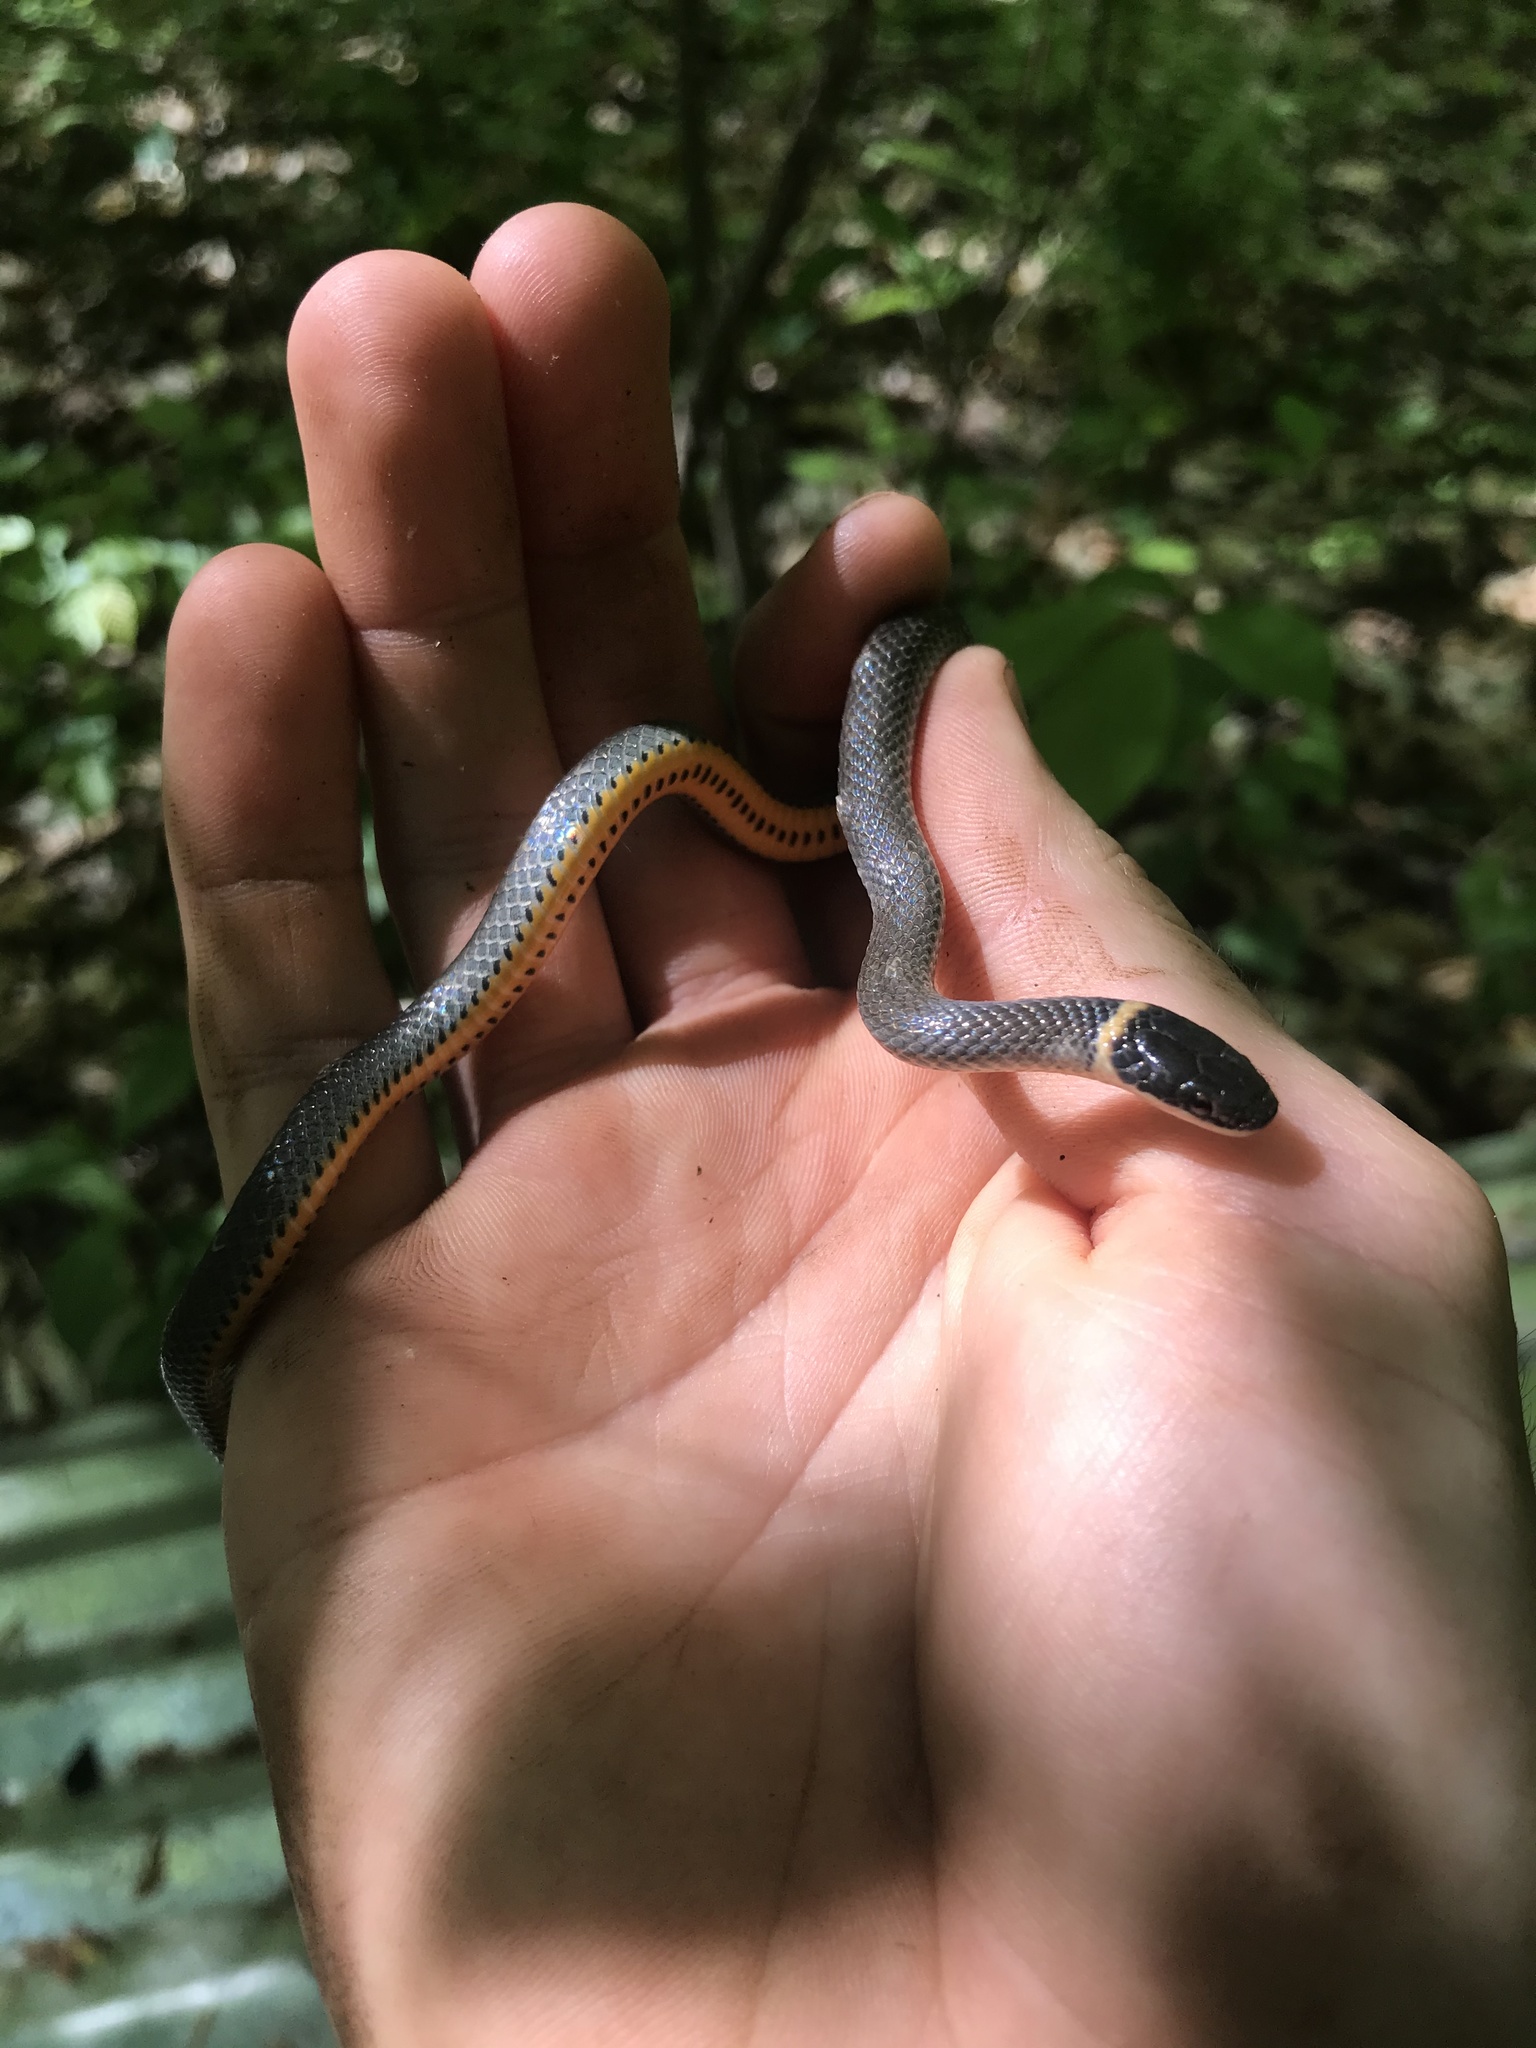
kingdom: Animalia
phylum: Chordata
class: Squamata
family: Colubridae
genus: Diadophis
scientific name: Diadophis punctatus
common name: Ringneck snake
